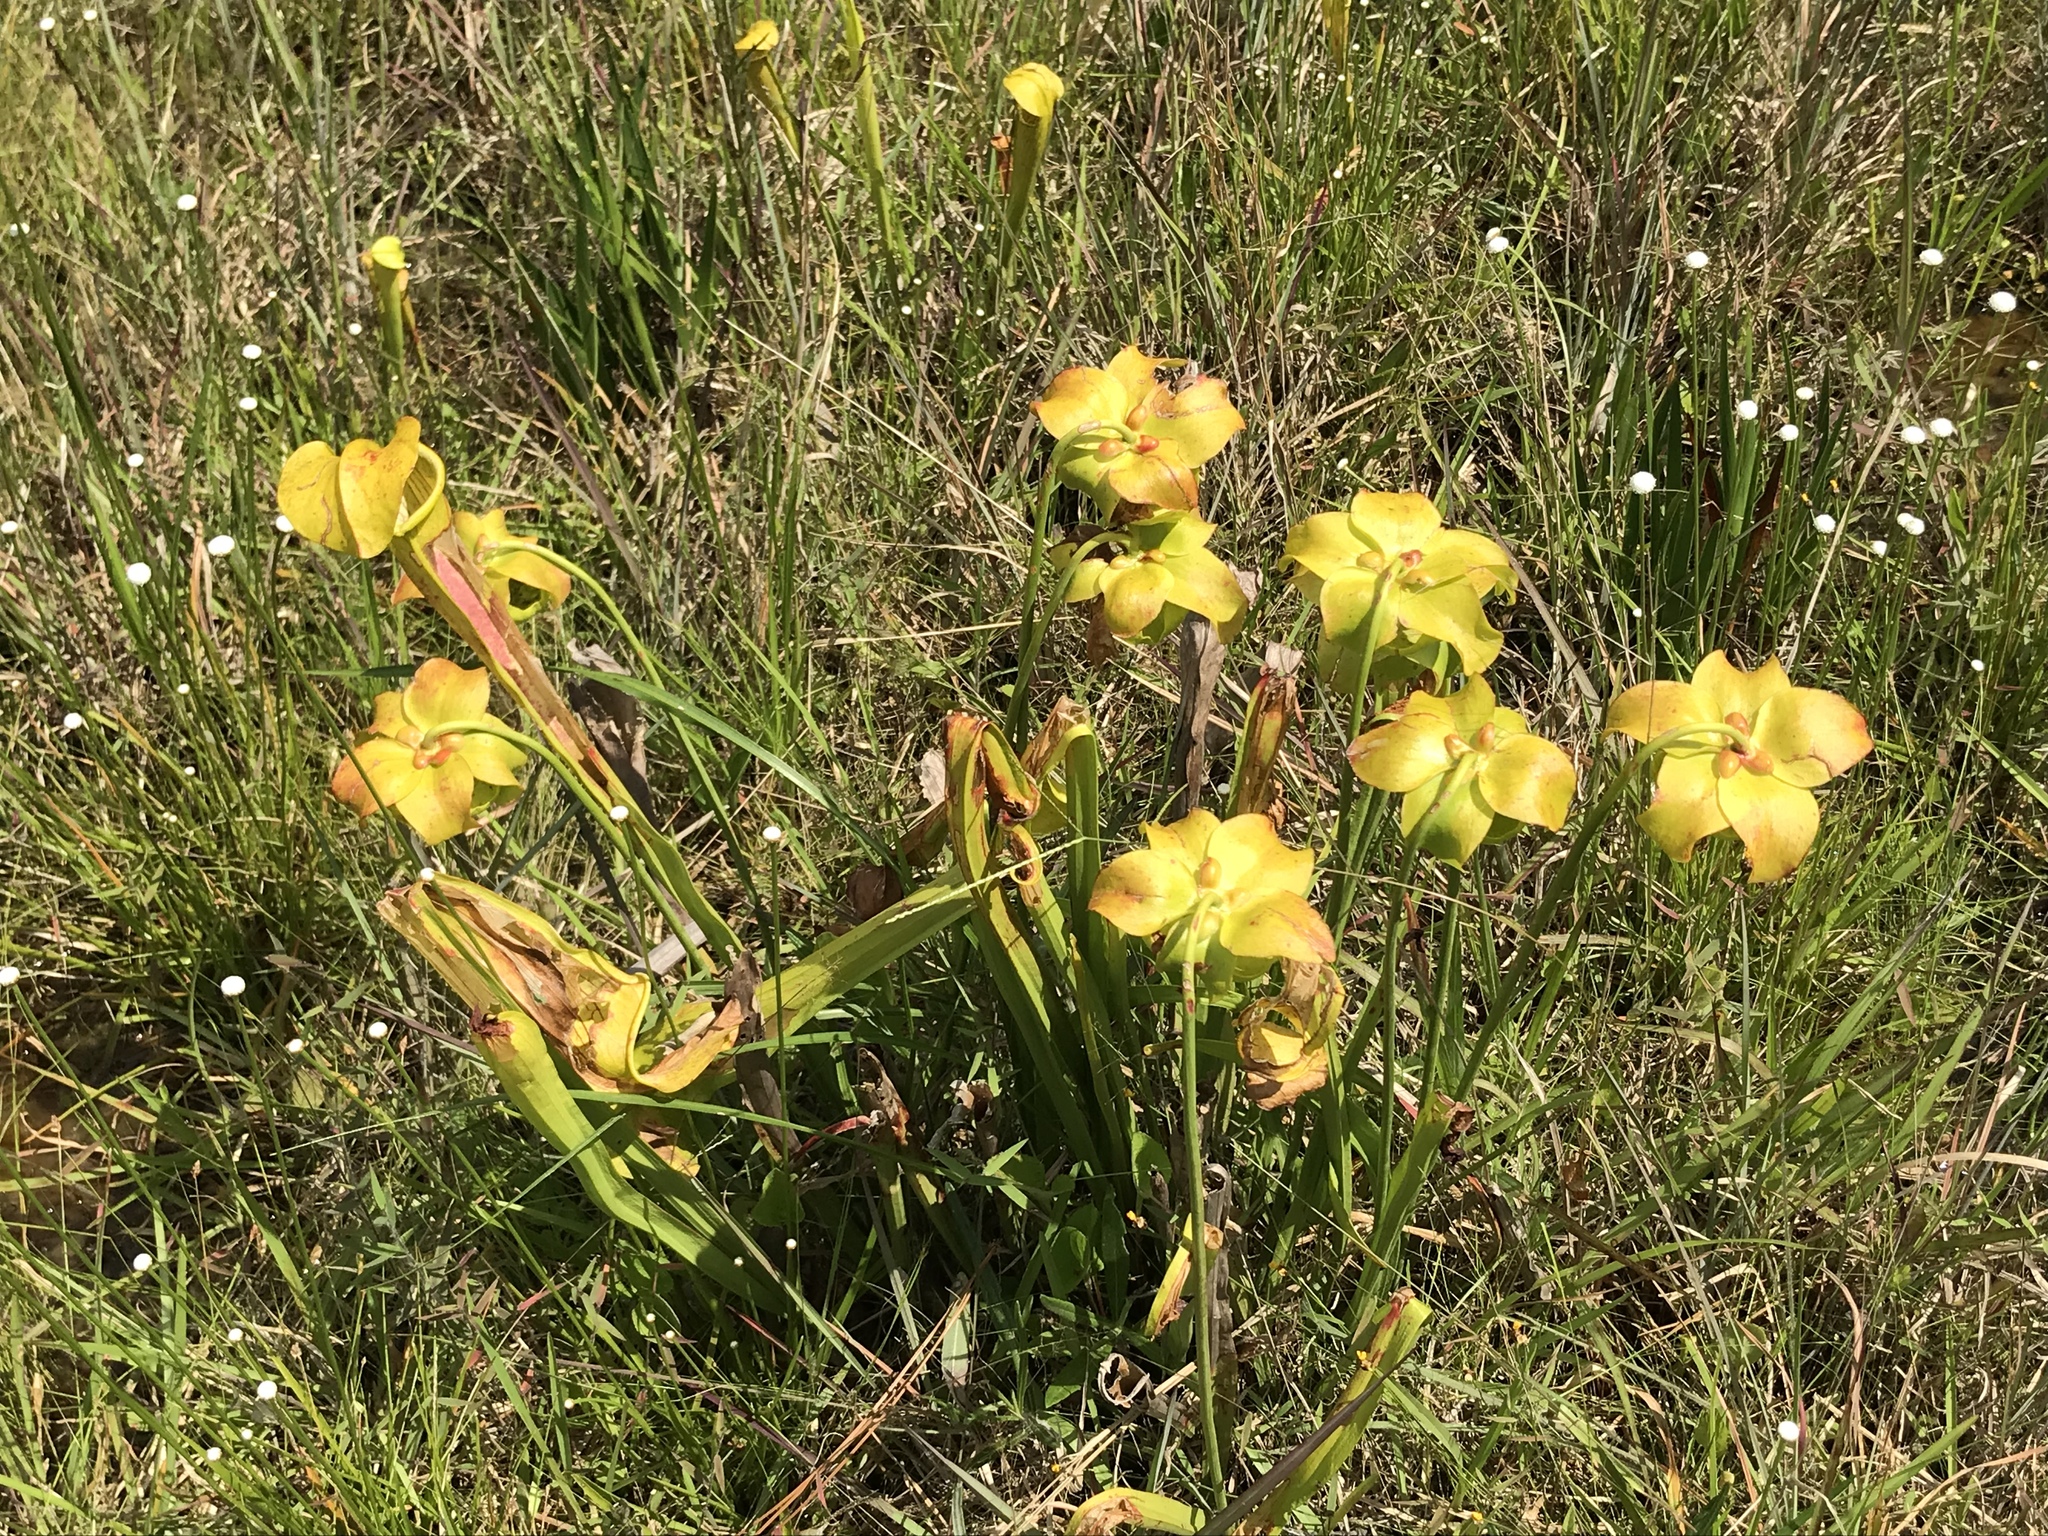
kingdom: Plantae
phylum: Tracheophyta
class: Magnoliopsida
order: Ericales
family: Sarraceniaceae
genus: Sarracenia
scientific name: Sarracenia alata
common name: Yellow trumpets
